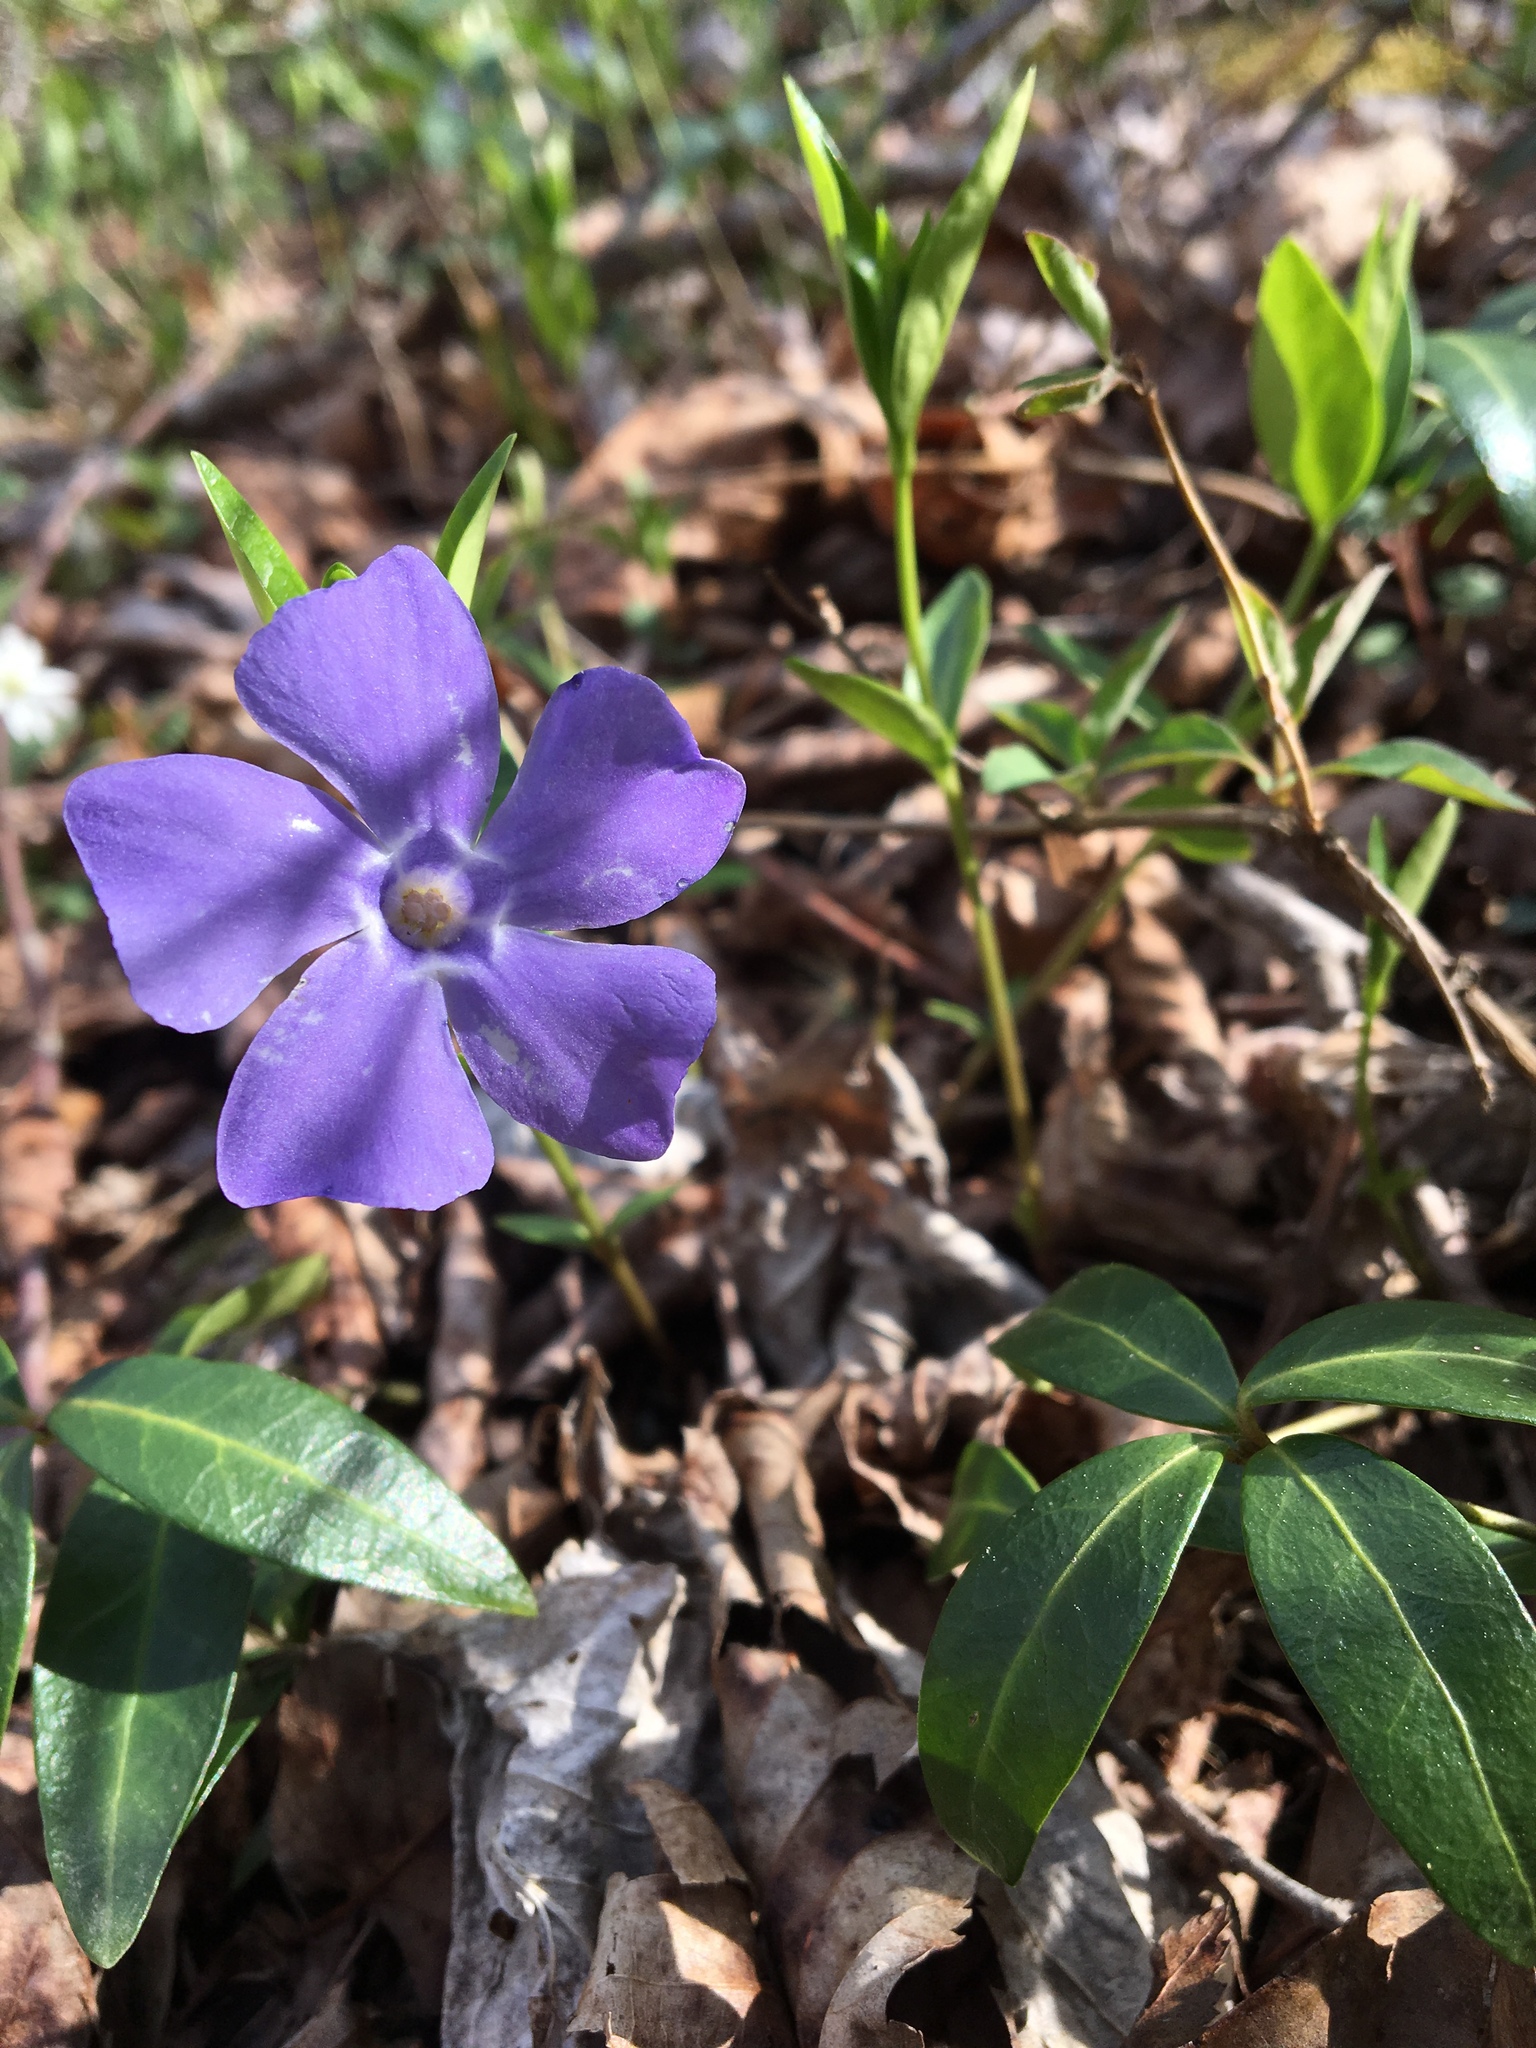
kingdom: Plantae
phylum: Tracheophyta
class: Magnoliopsida
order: Gentianales
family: Apocynaceae
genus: Vinca
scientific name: Vinca minor
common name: Lesser periwinkle
